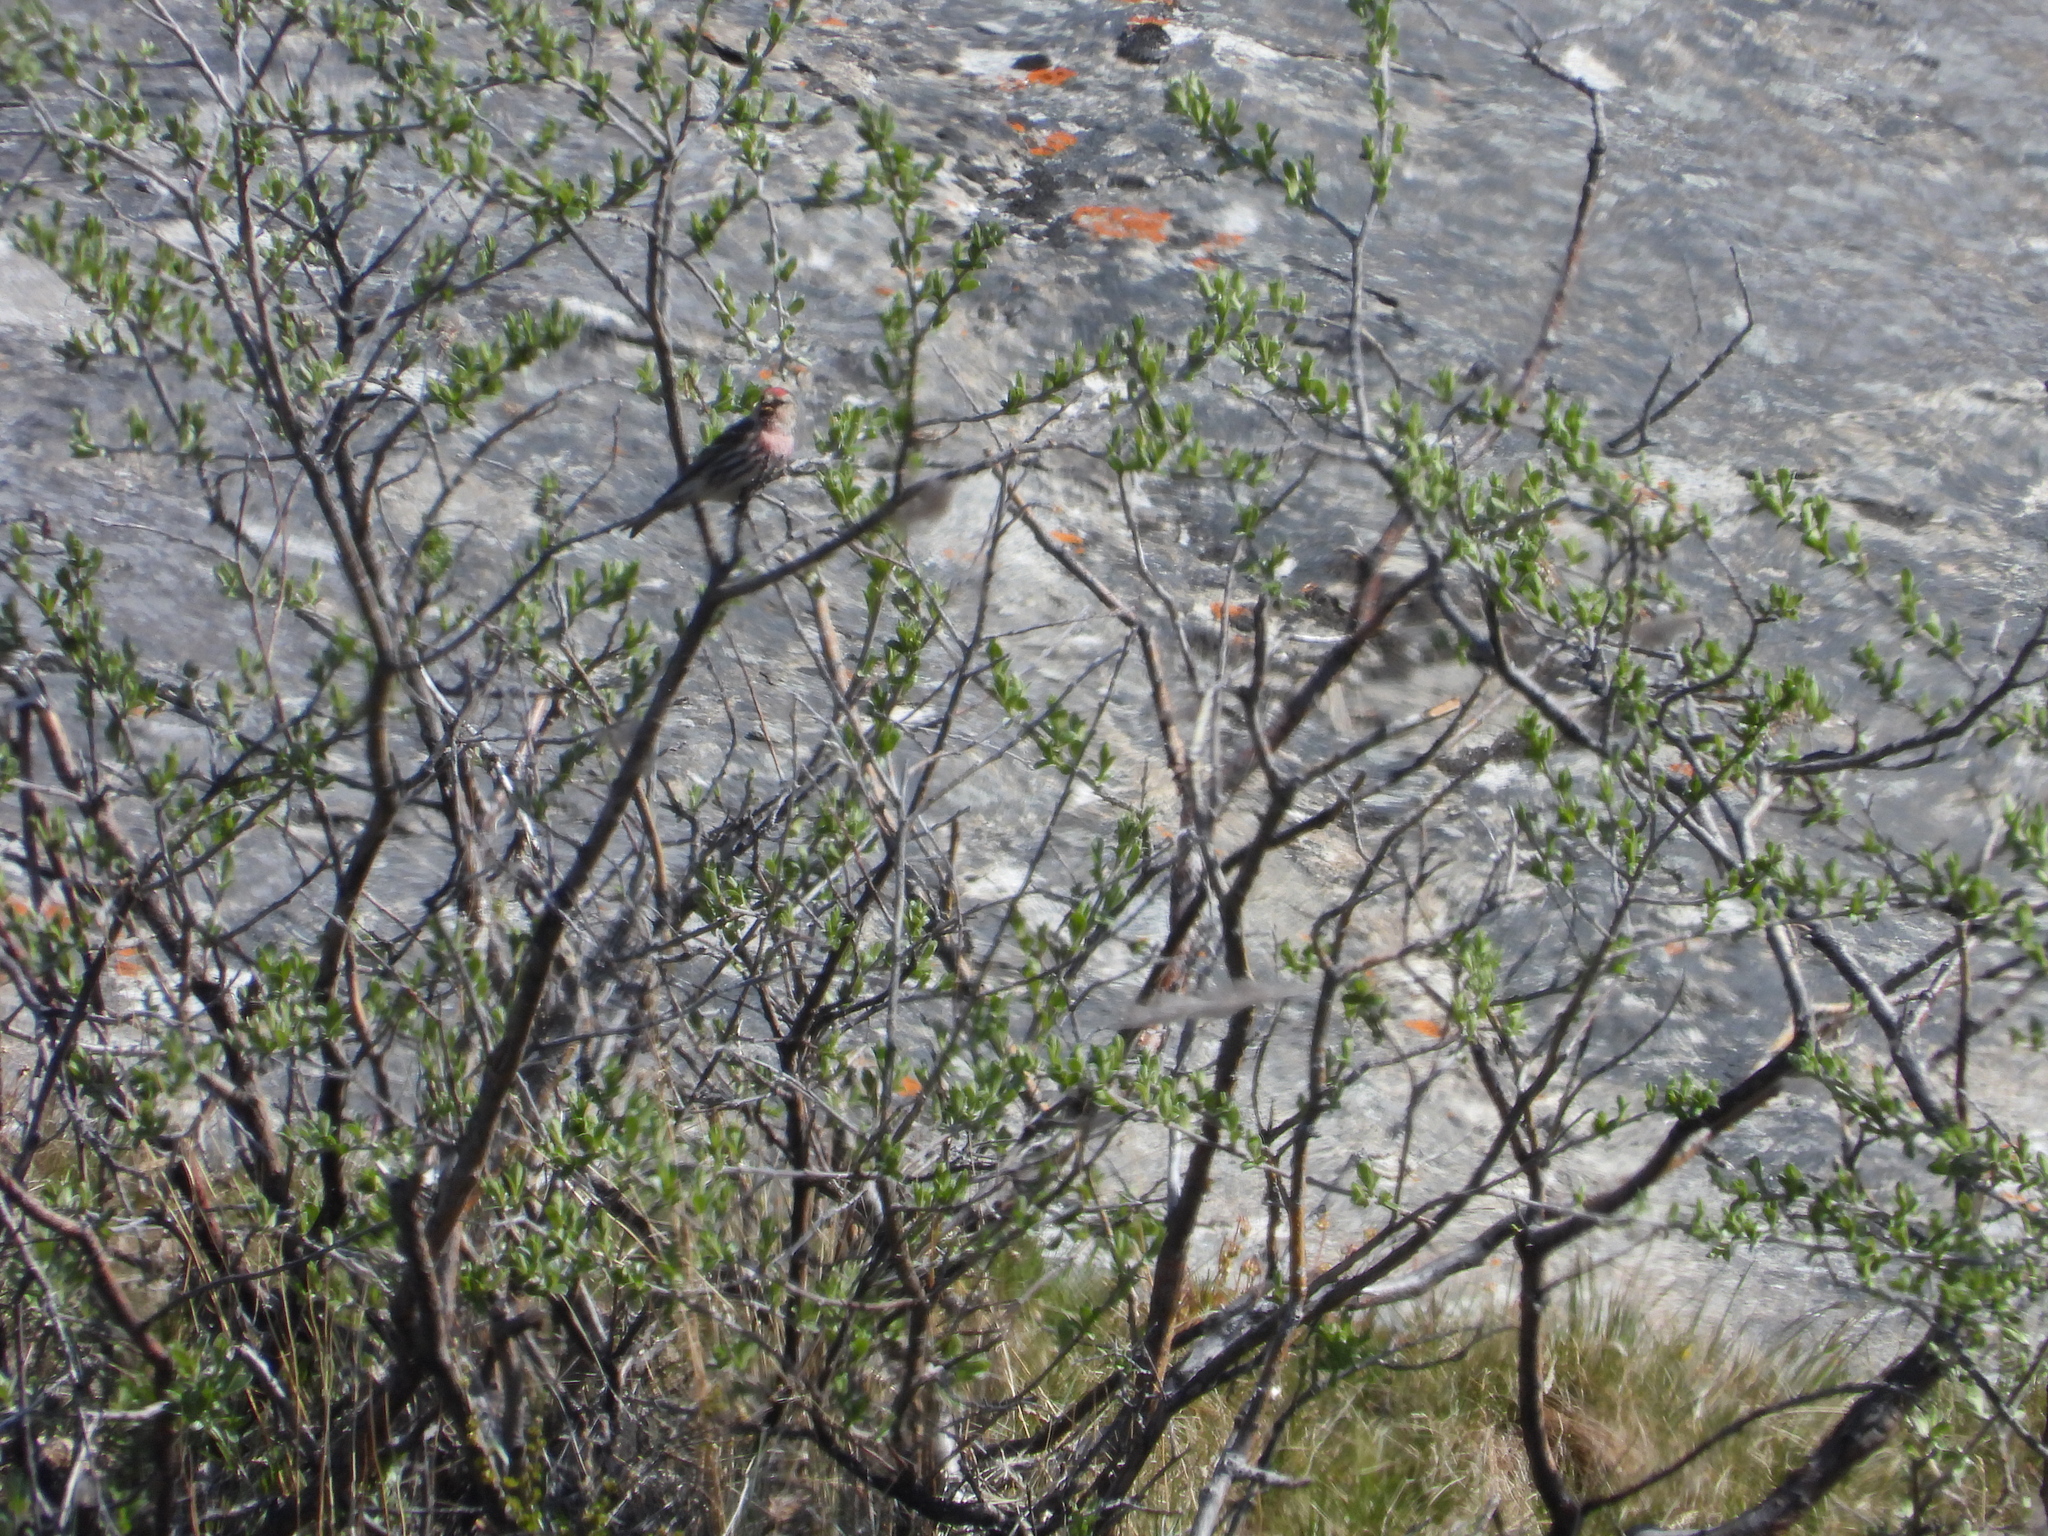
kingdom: Animalia
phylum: Chordata
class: Aves
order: Passeriformes
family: Fringillidae
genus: Acanthis
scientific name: Acanthis flammea
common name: Common redpoll
